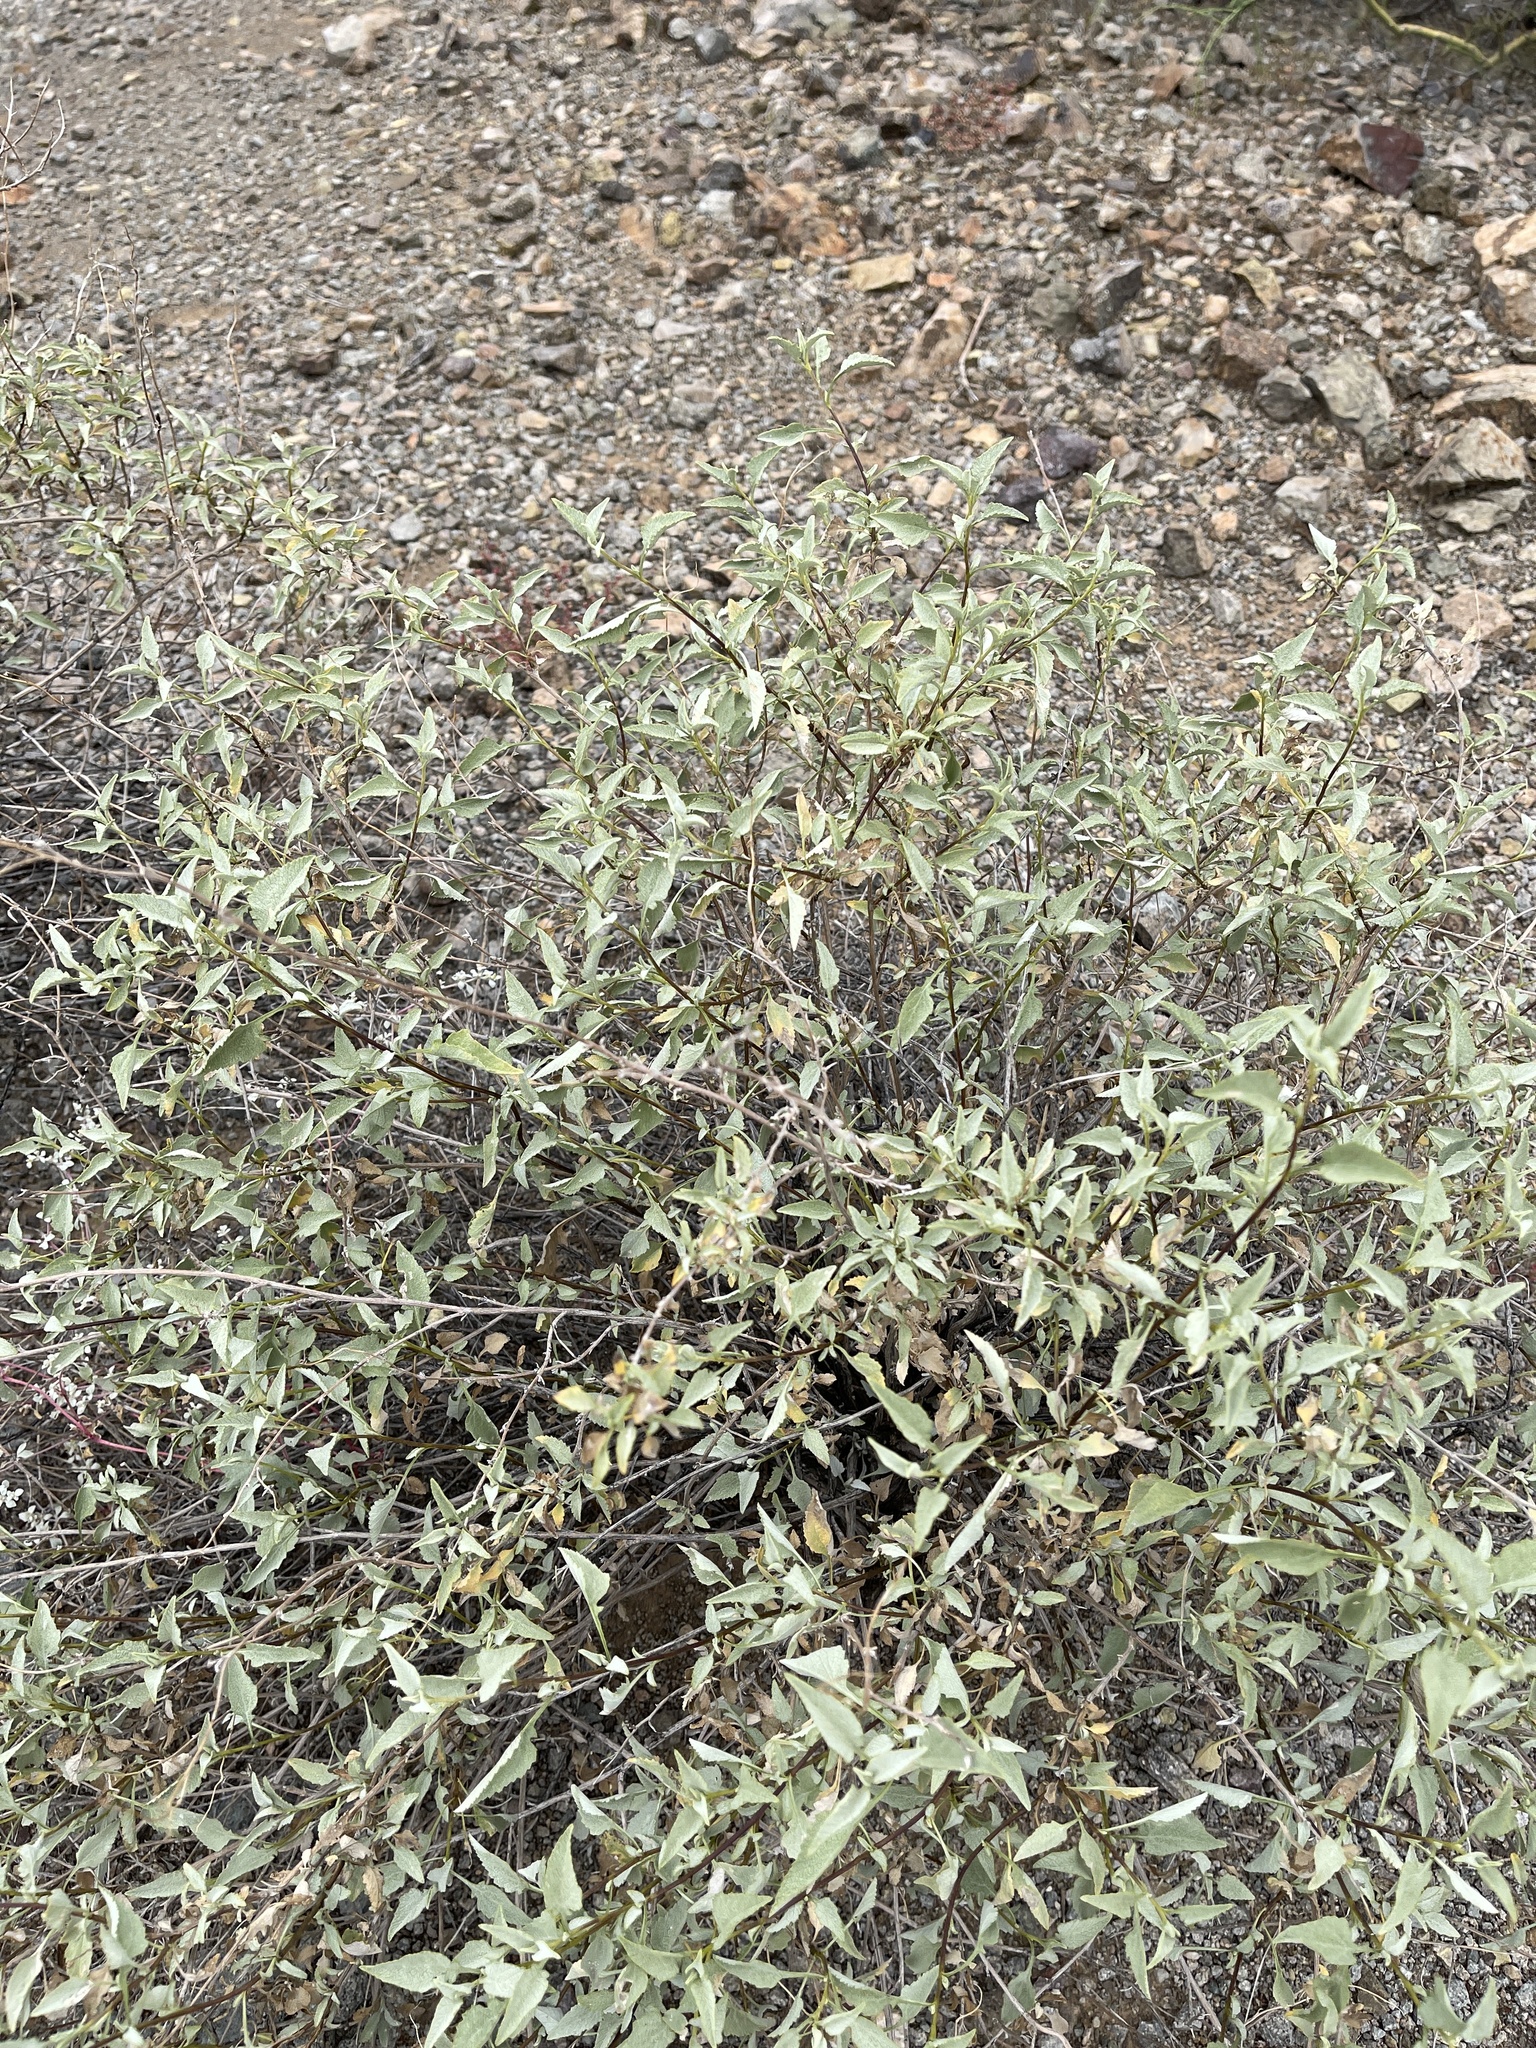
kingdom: Plantae
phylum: Tracheophyta
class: Magnoliopsida
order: Asterales
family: Asteraceae
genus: Ambrosia
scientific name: Ambrosia deltoidea
